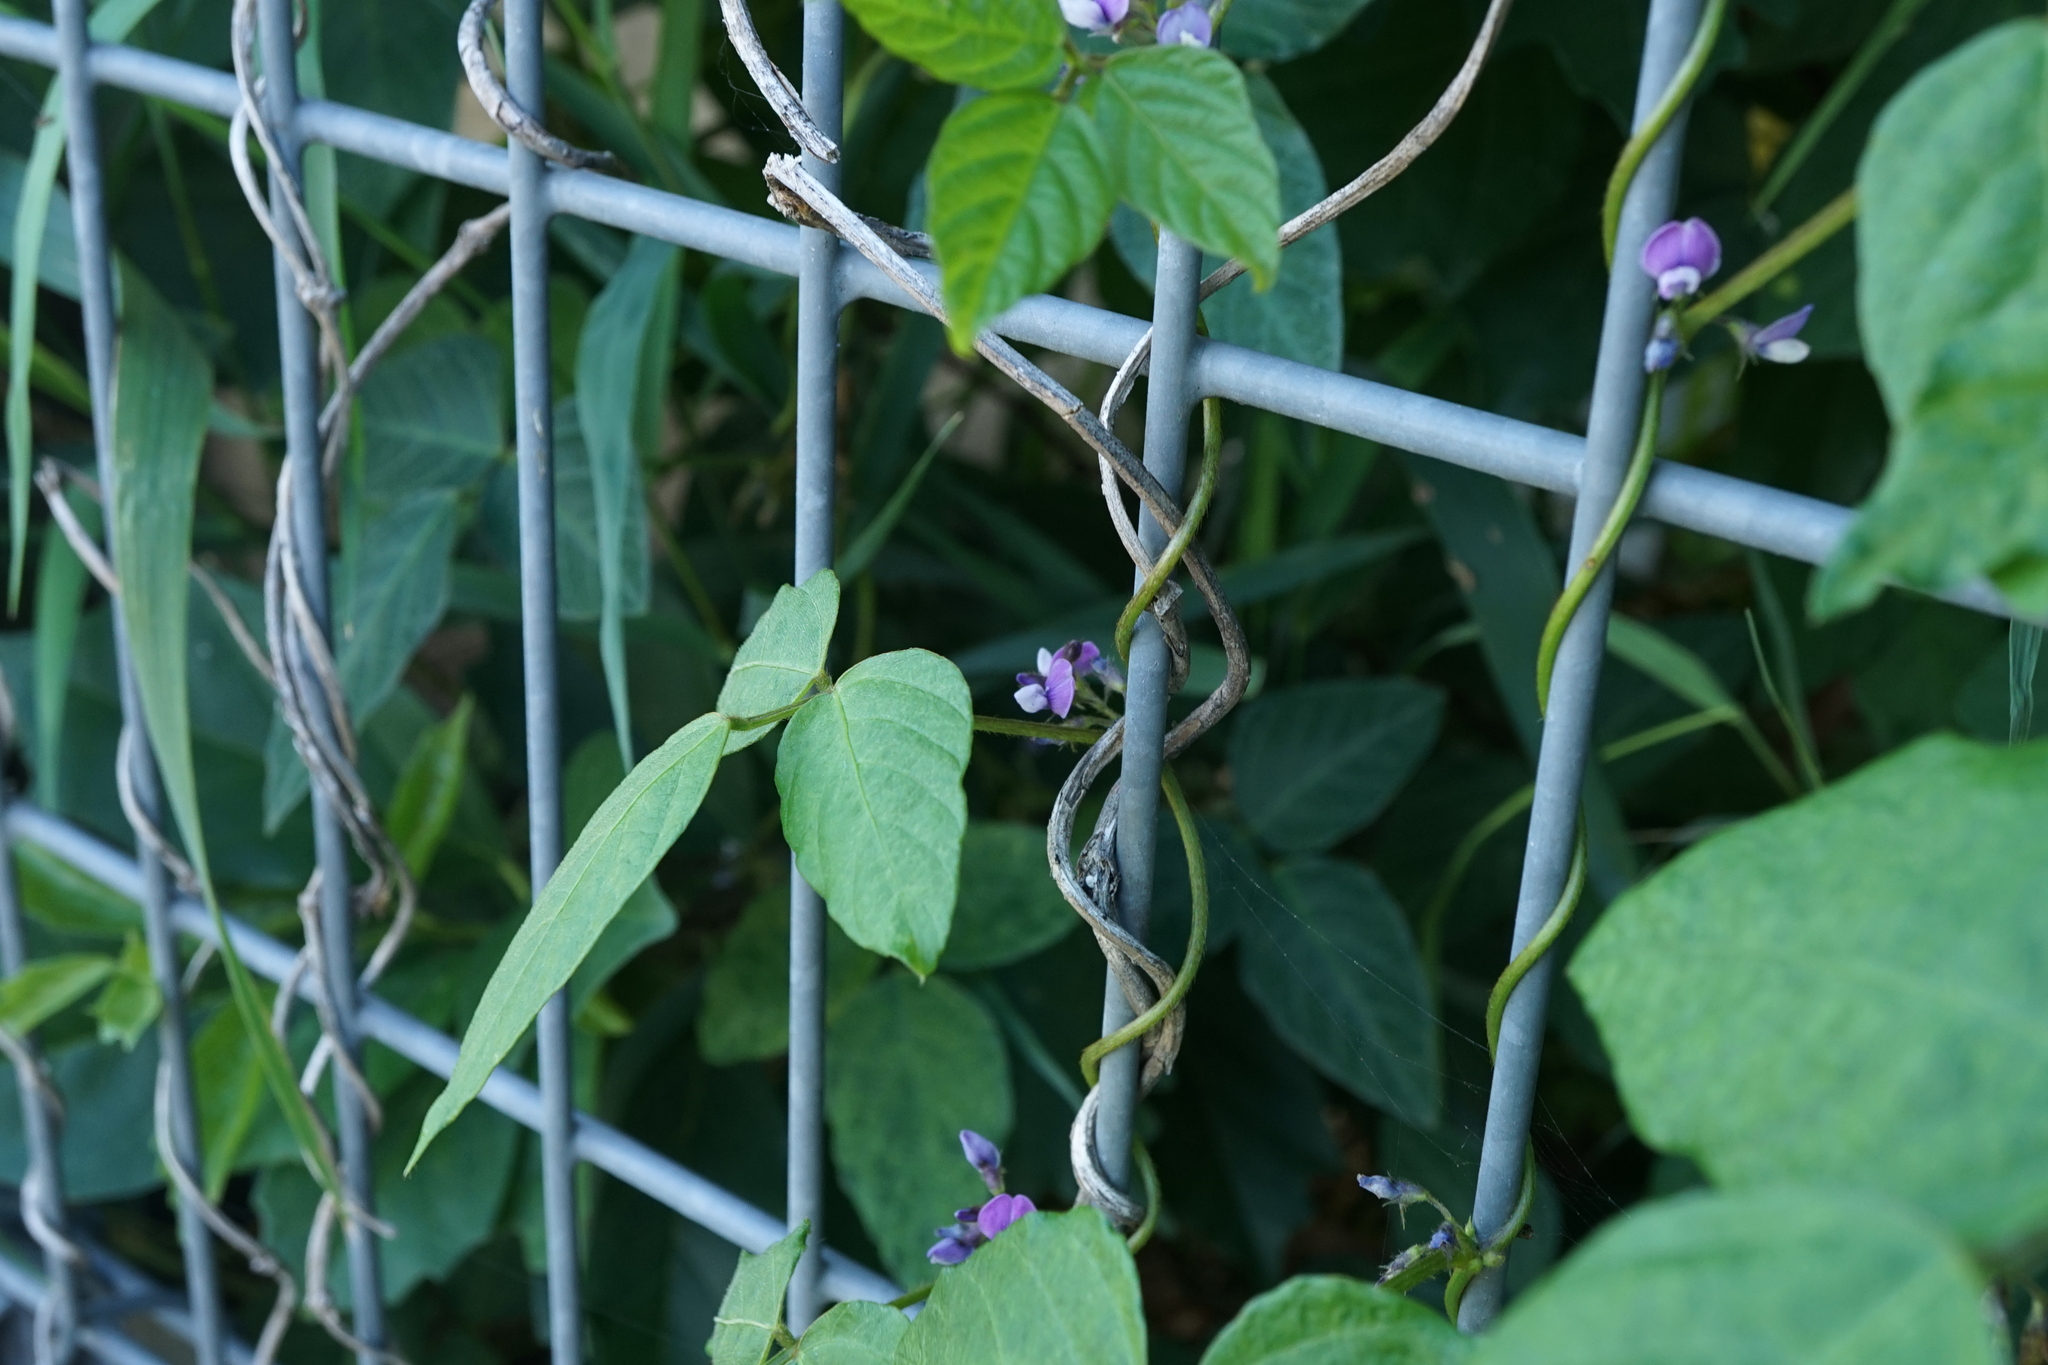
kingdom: Plantae
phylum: Tracheophyta
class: Magnoliopsida
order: Fabales
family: Fabaceae
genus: Glycine
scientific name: Glycine max
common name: Soya-bean
